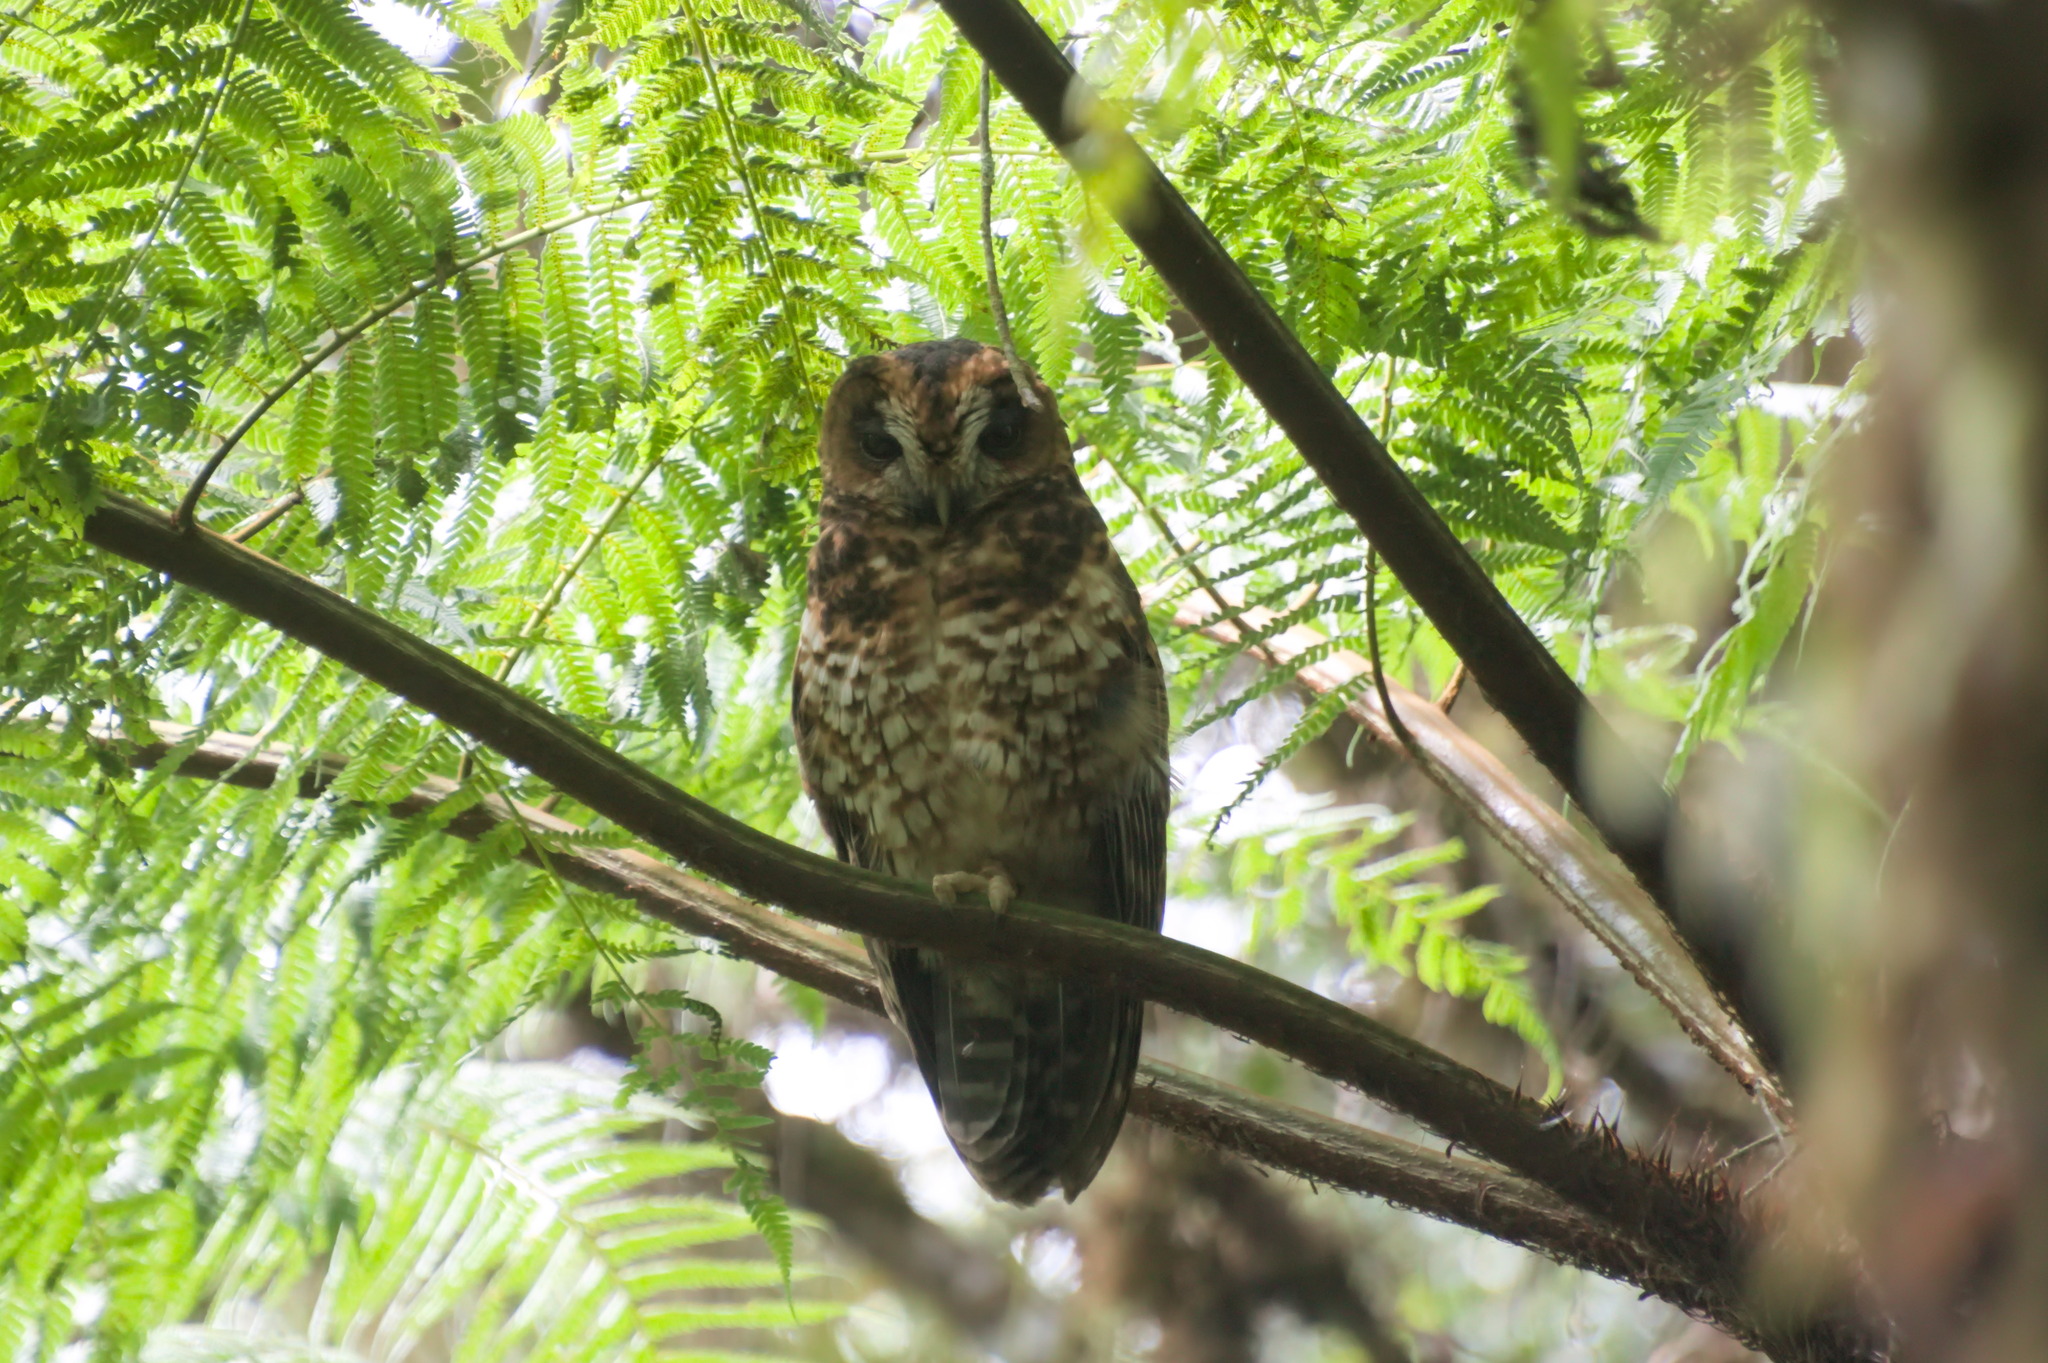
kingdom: Animalia
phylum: Chordata
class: Aves
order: Strigiformes
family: Strigidae
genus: Strix
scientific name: Strix albitarsis
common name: Rufous-banded owl
